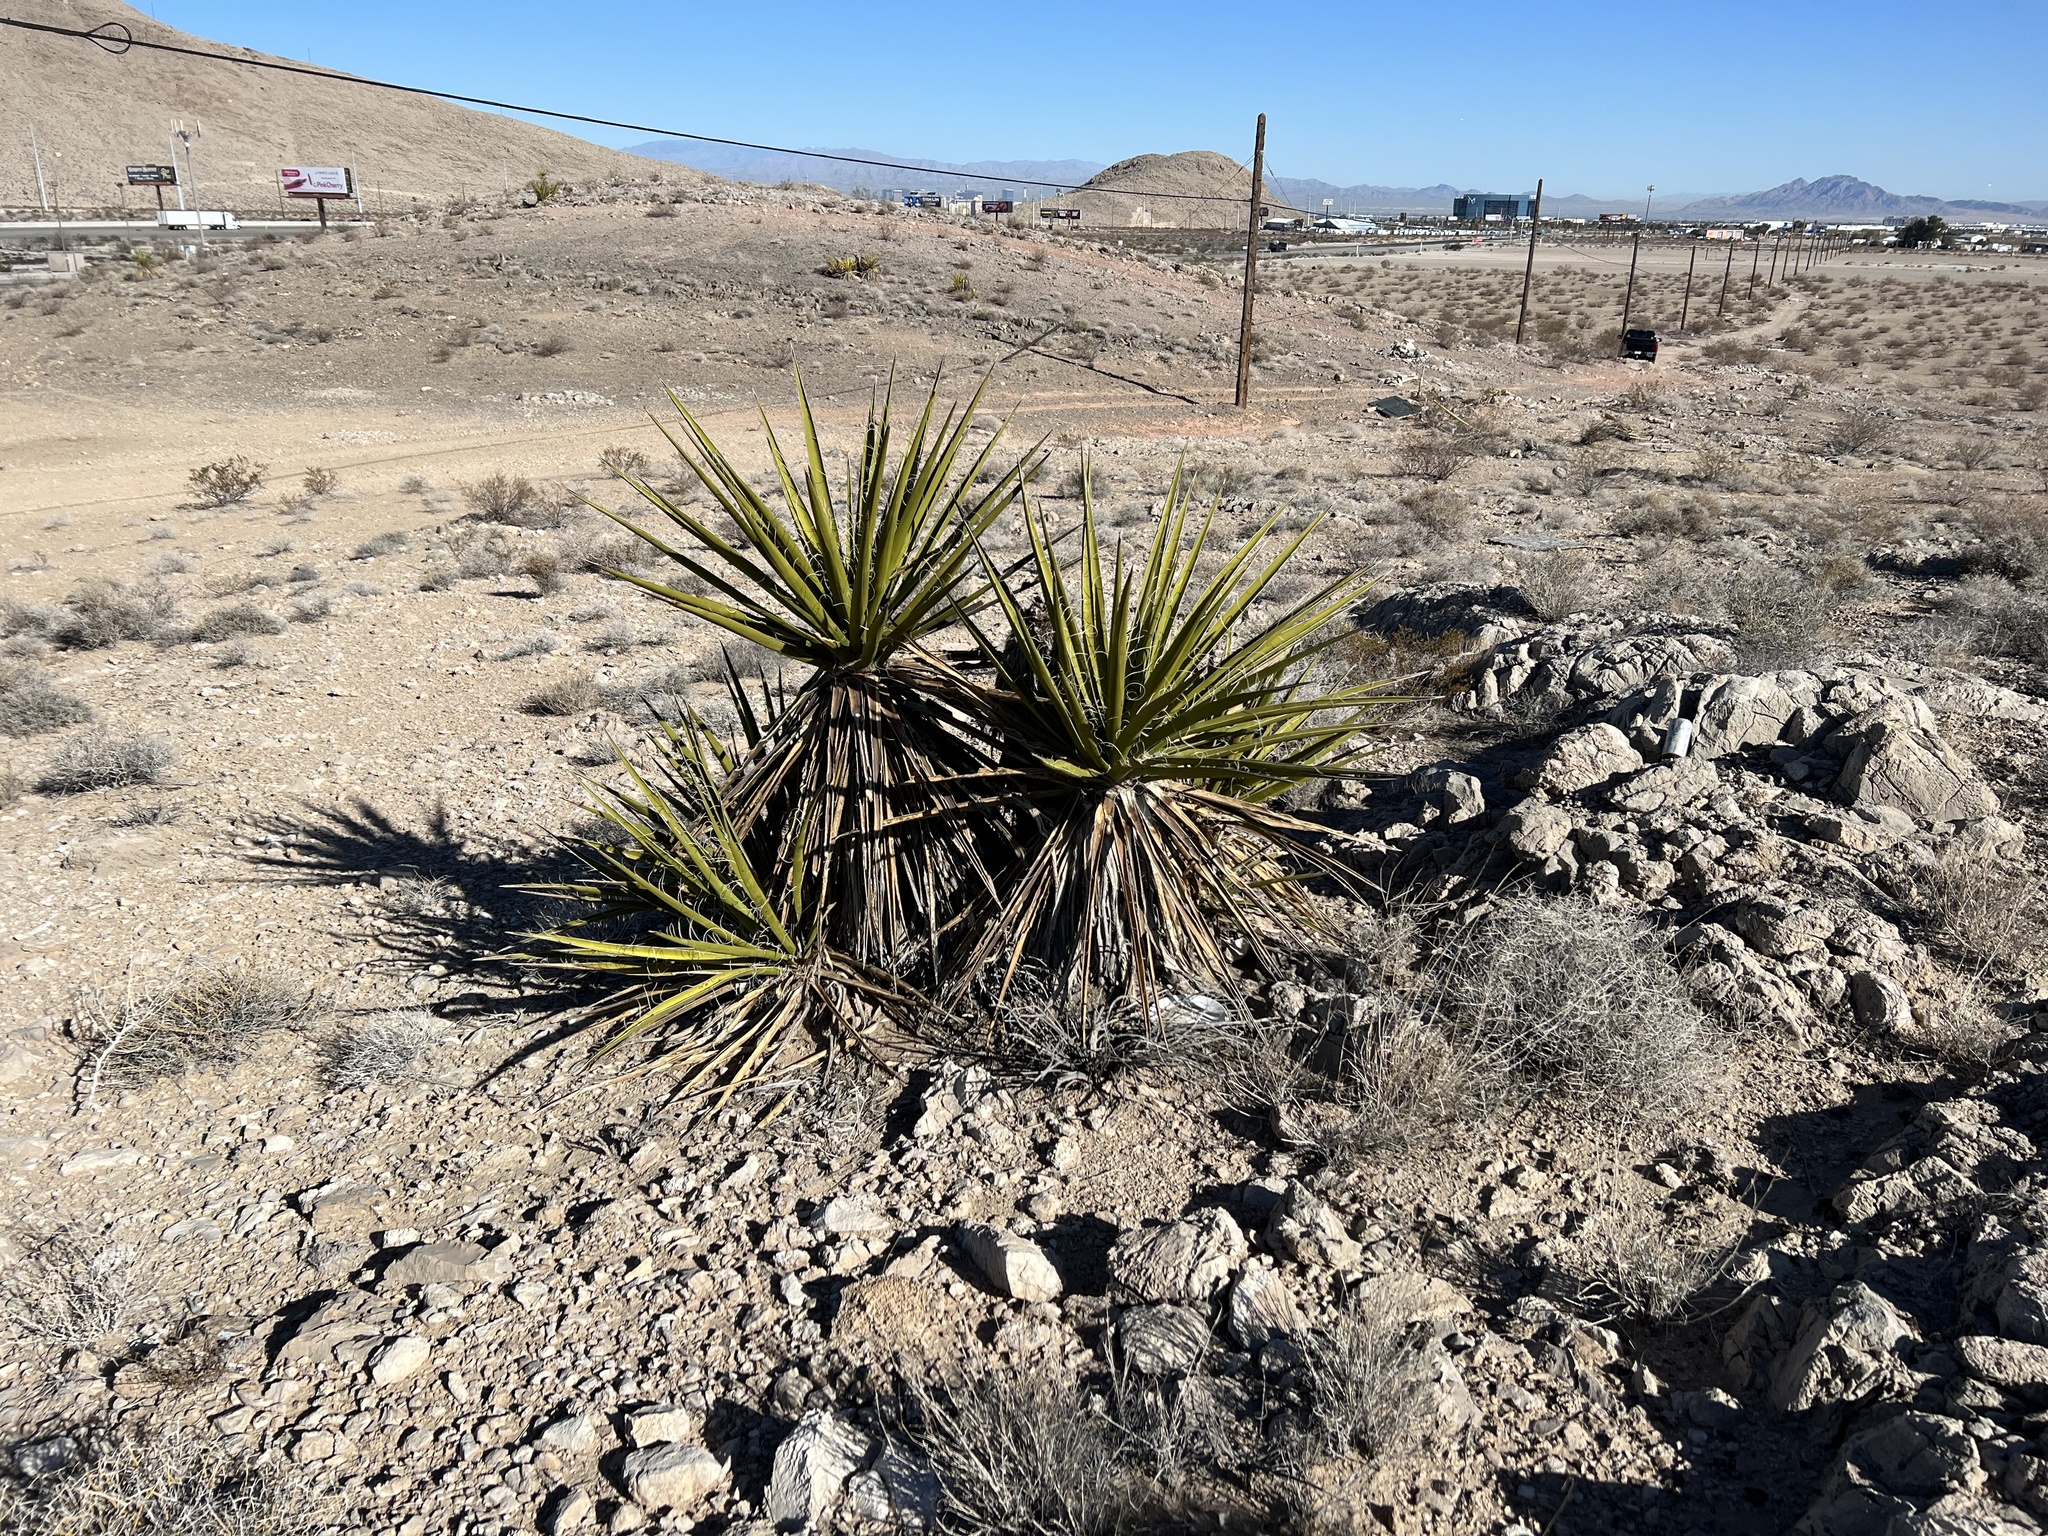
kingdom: Plantae
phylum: Tracheophyta
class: Liliopsida
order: Asparagales
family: Asparagaceae
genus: Yucca
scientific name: Yucca schidigera
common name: Mojave yucca
